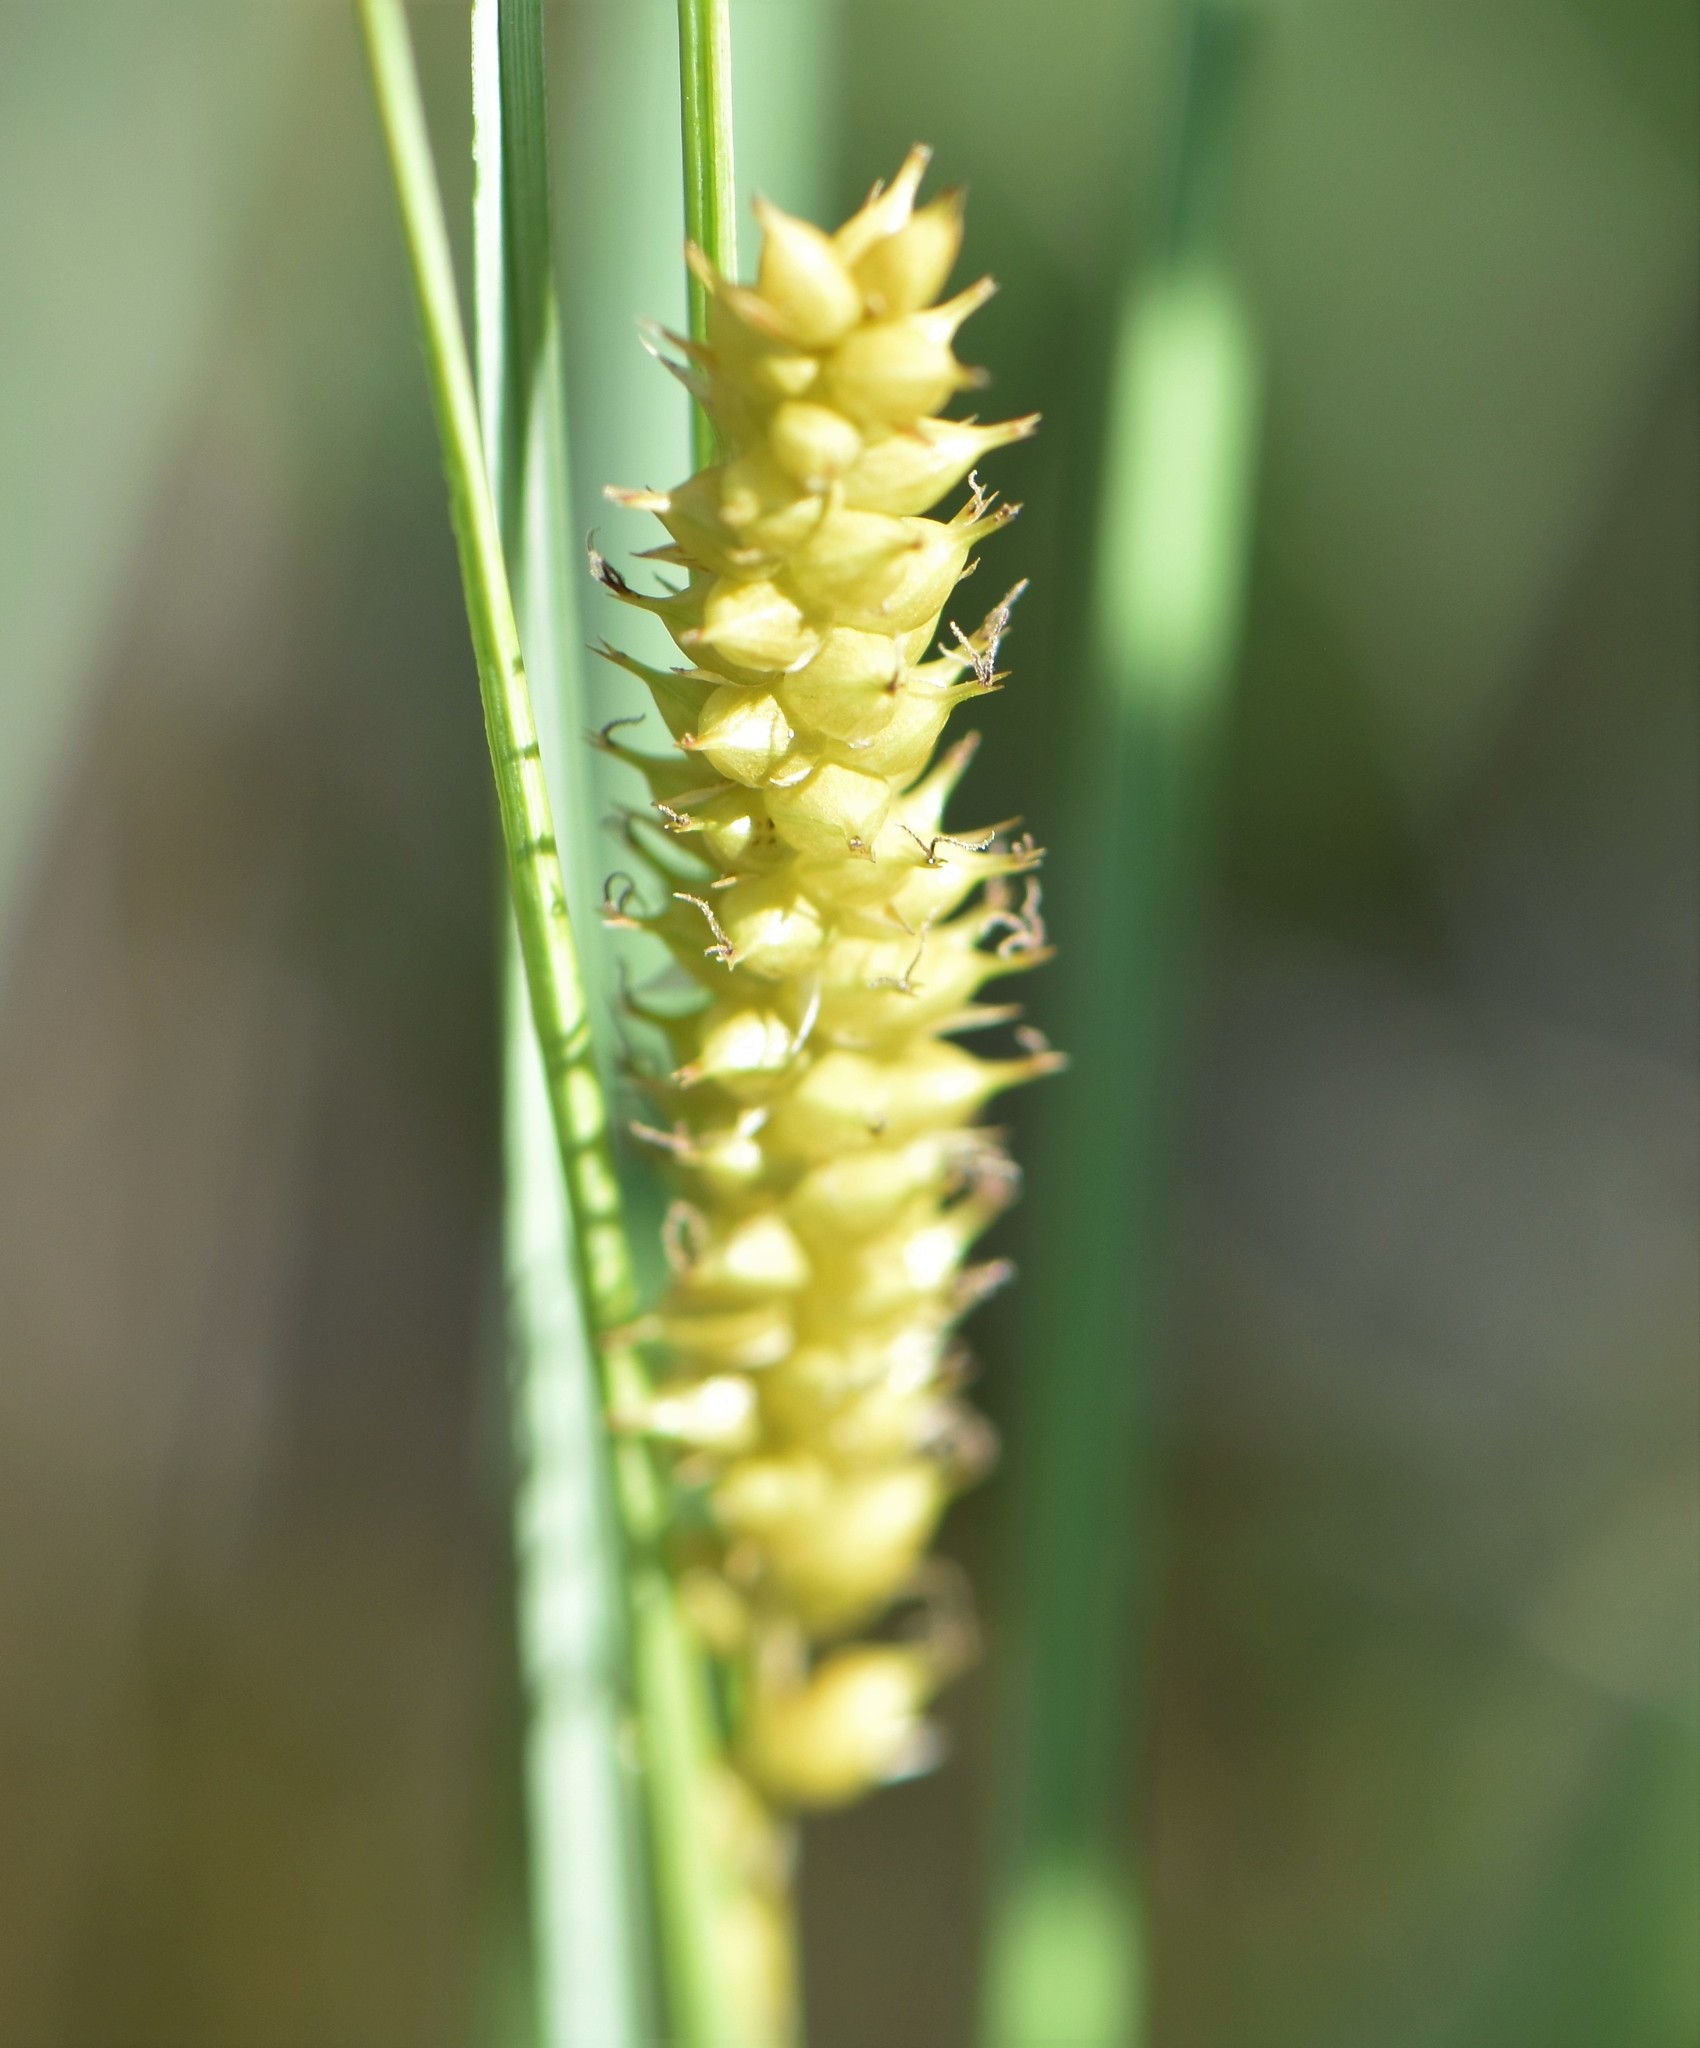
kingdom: Plantae
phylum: Tracheophyta
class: Liliopsida
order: Poales
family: Cyperaceae
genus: Carex
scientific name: Carex rostrata
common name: Bottle sedge
